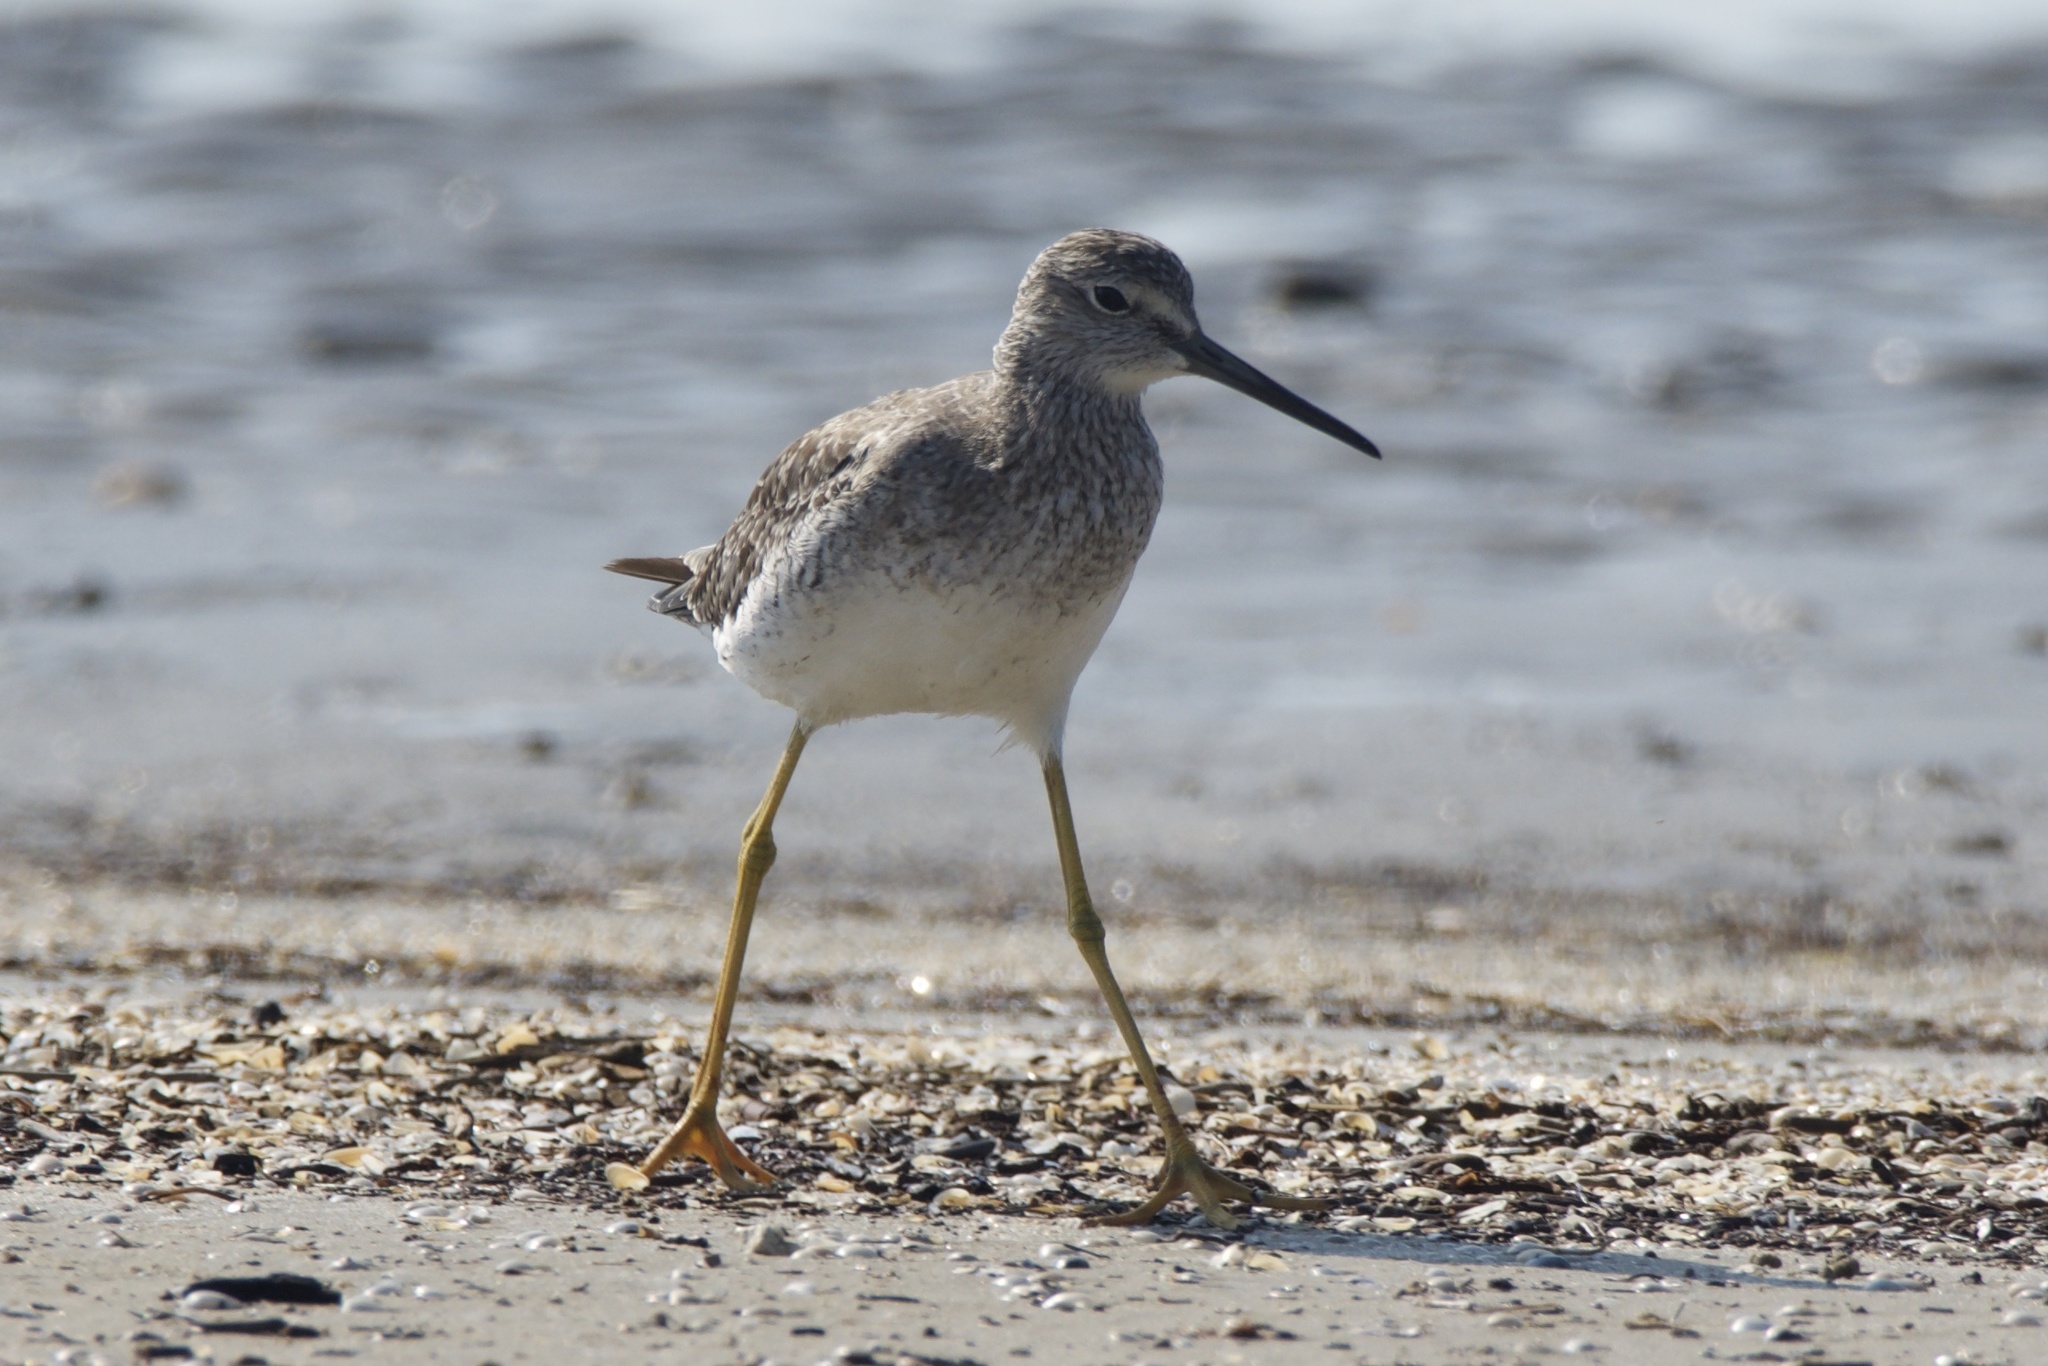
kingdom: Animalia
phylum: Chordata
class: Aves
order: Charadriiformes
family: Scolopacidae
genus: Tringa
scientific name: Tringa melanoleuca
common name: Greater yellowlegs
